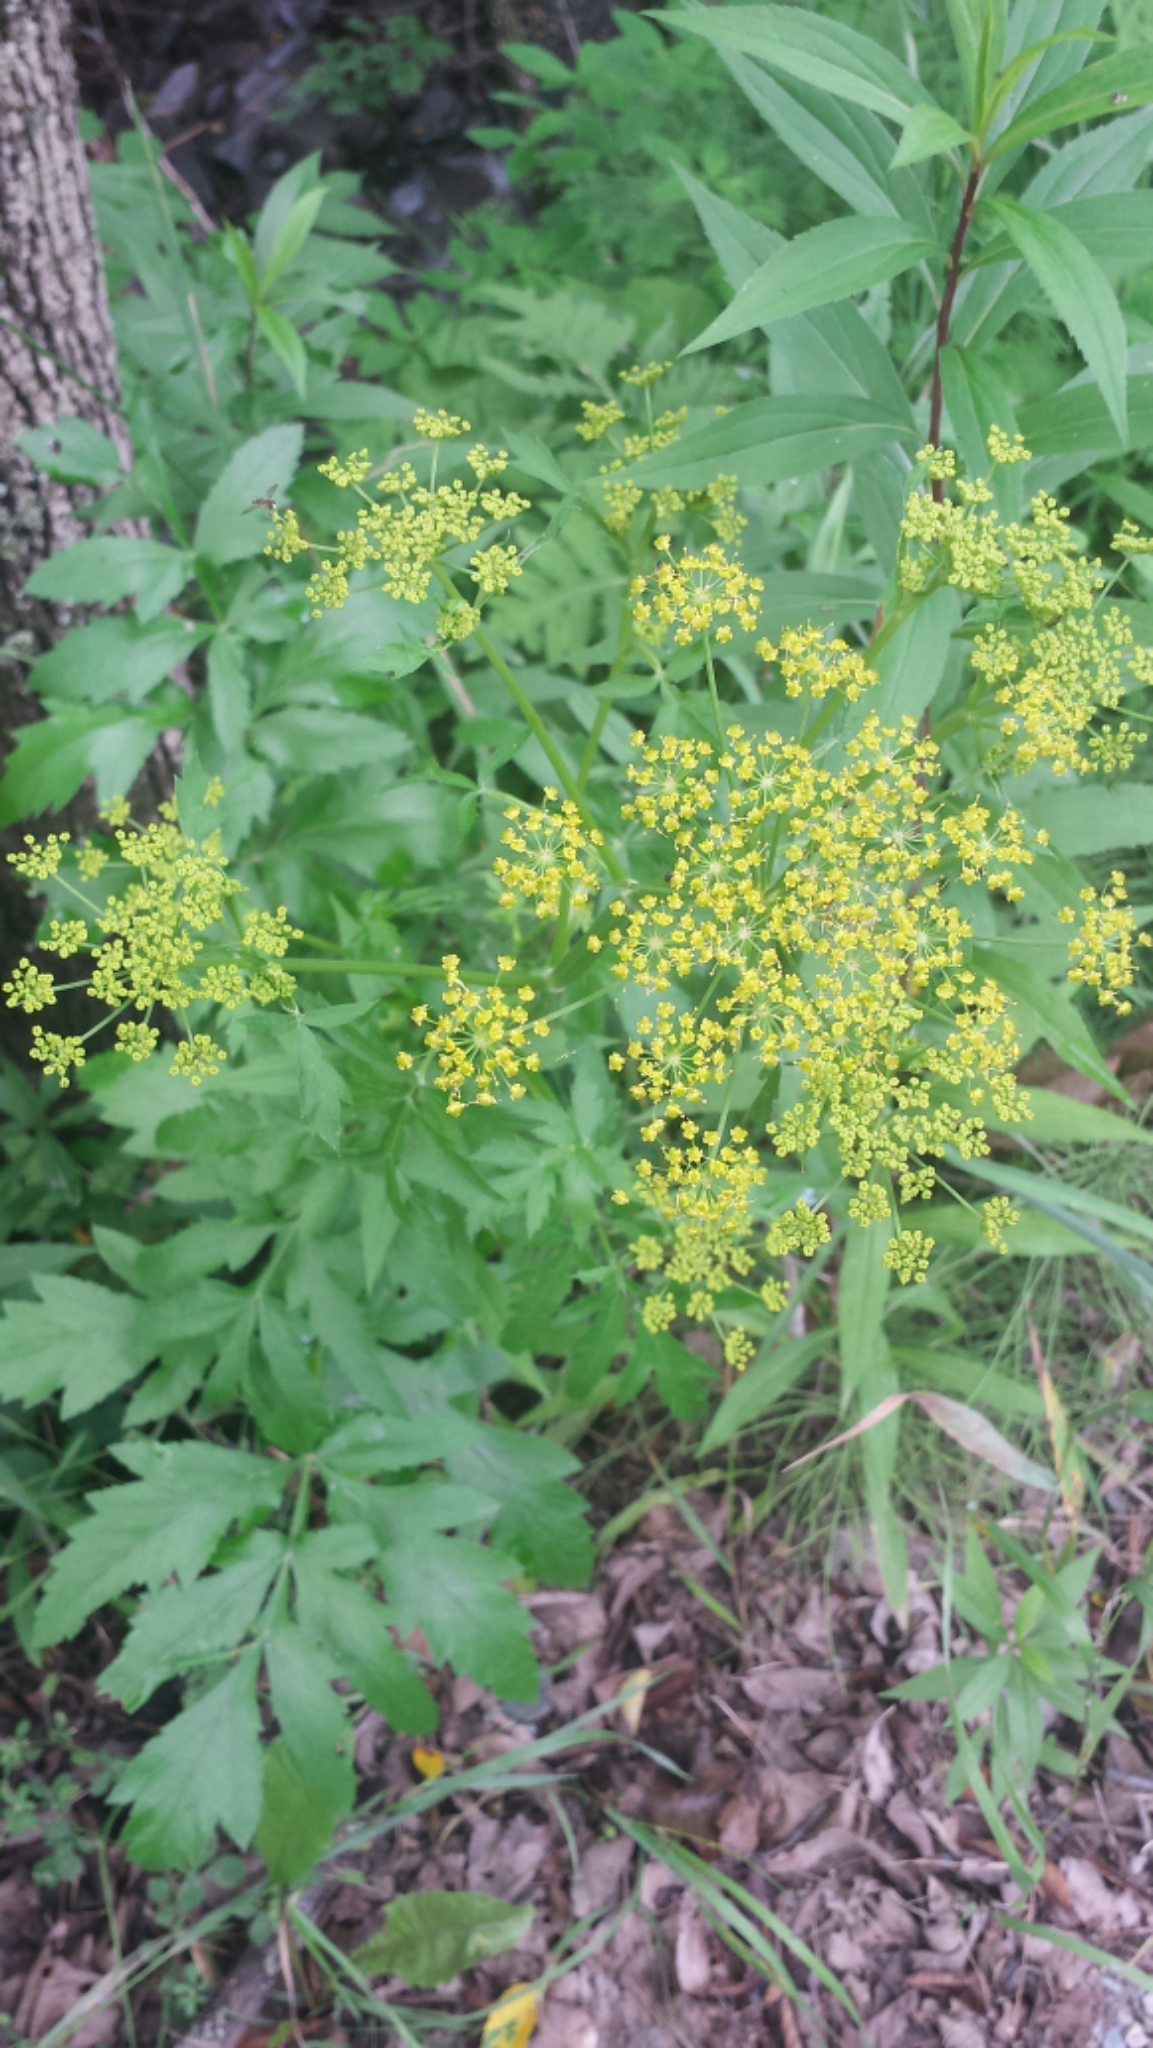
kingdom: Plantae
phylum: Tracheophyta
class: Magnoliopsida
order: Apiales
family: Apiaceae
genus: Pastinaca
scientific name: Pastinaca sativa
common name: Wild parsnip
